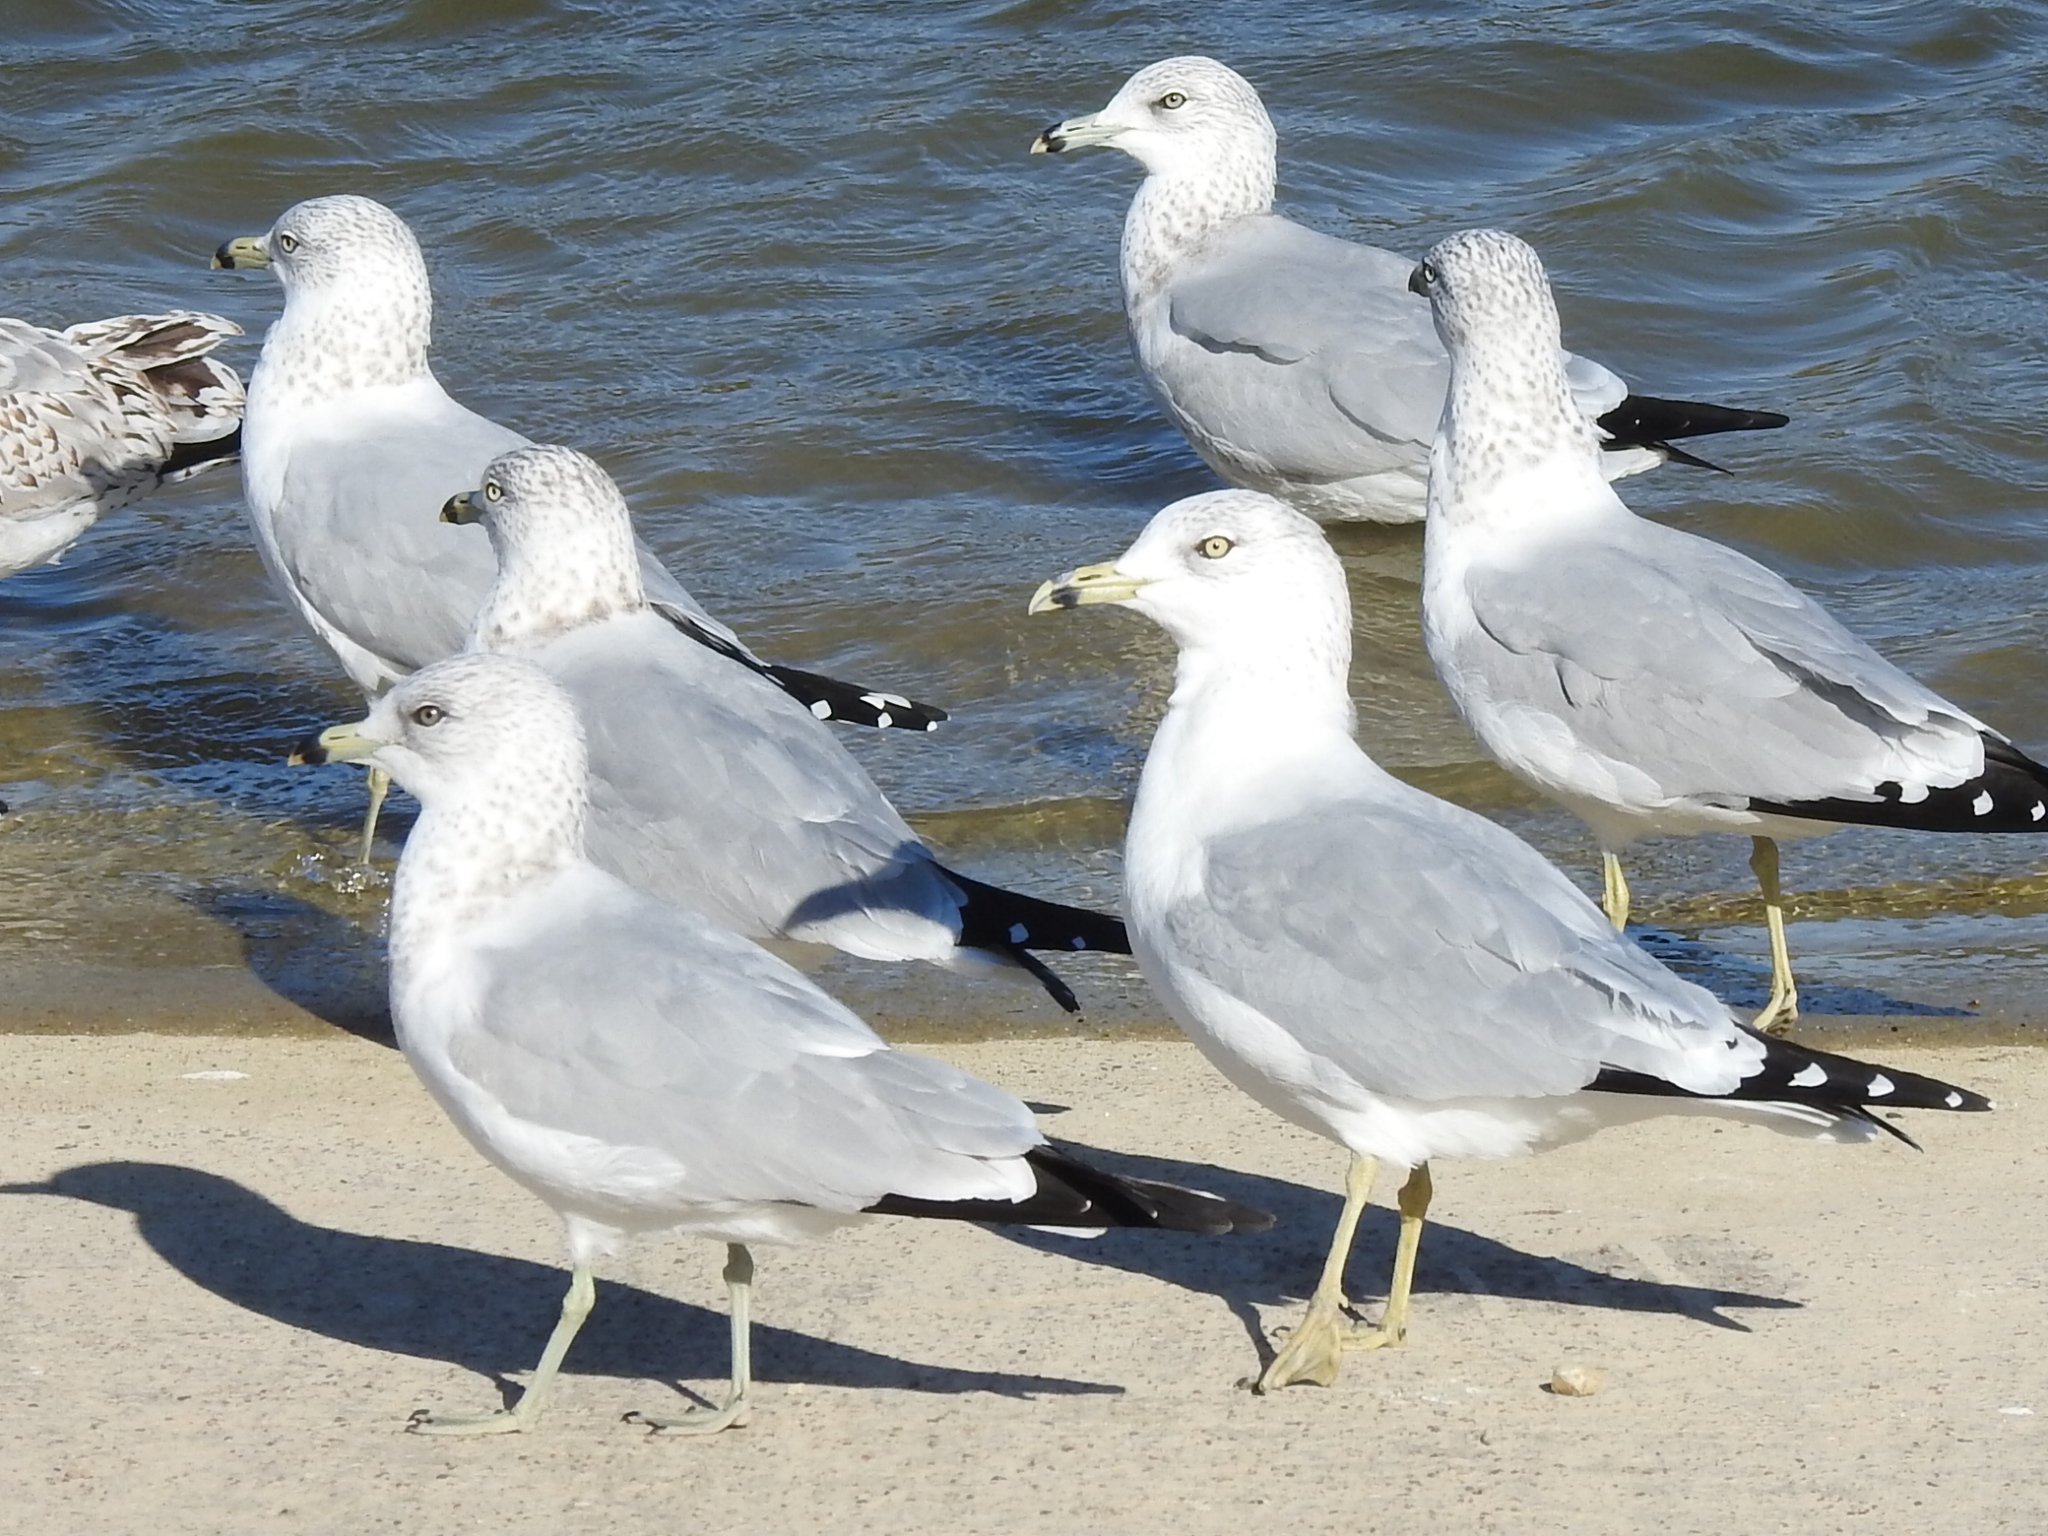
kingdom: Animalia
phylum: Chordata
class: Aves
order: Charadriiformes
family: Laridae
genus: Larus
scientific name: Larus delawarensis
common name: Ring-billed gull
